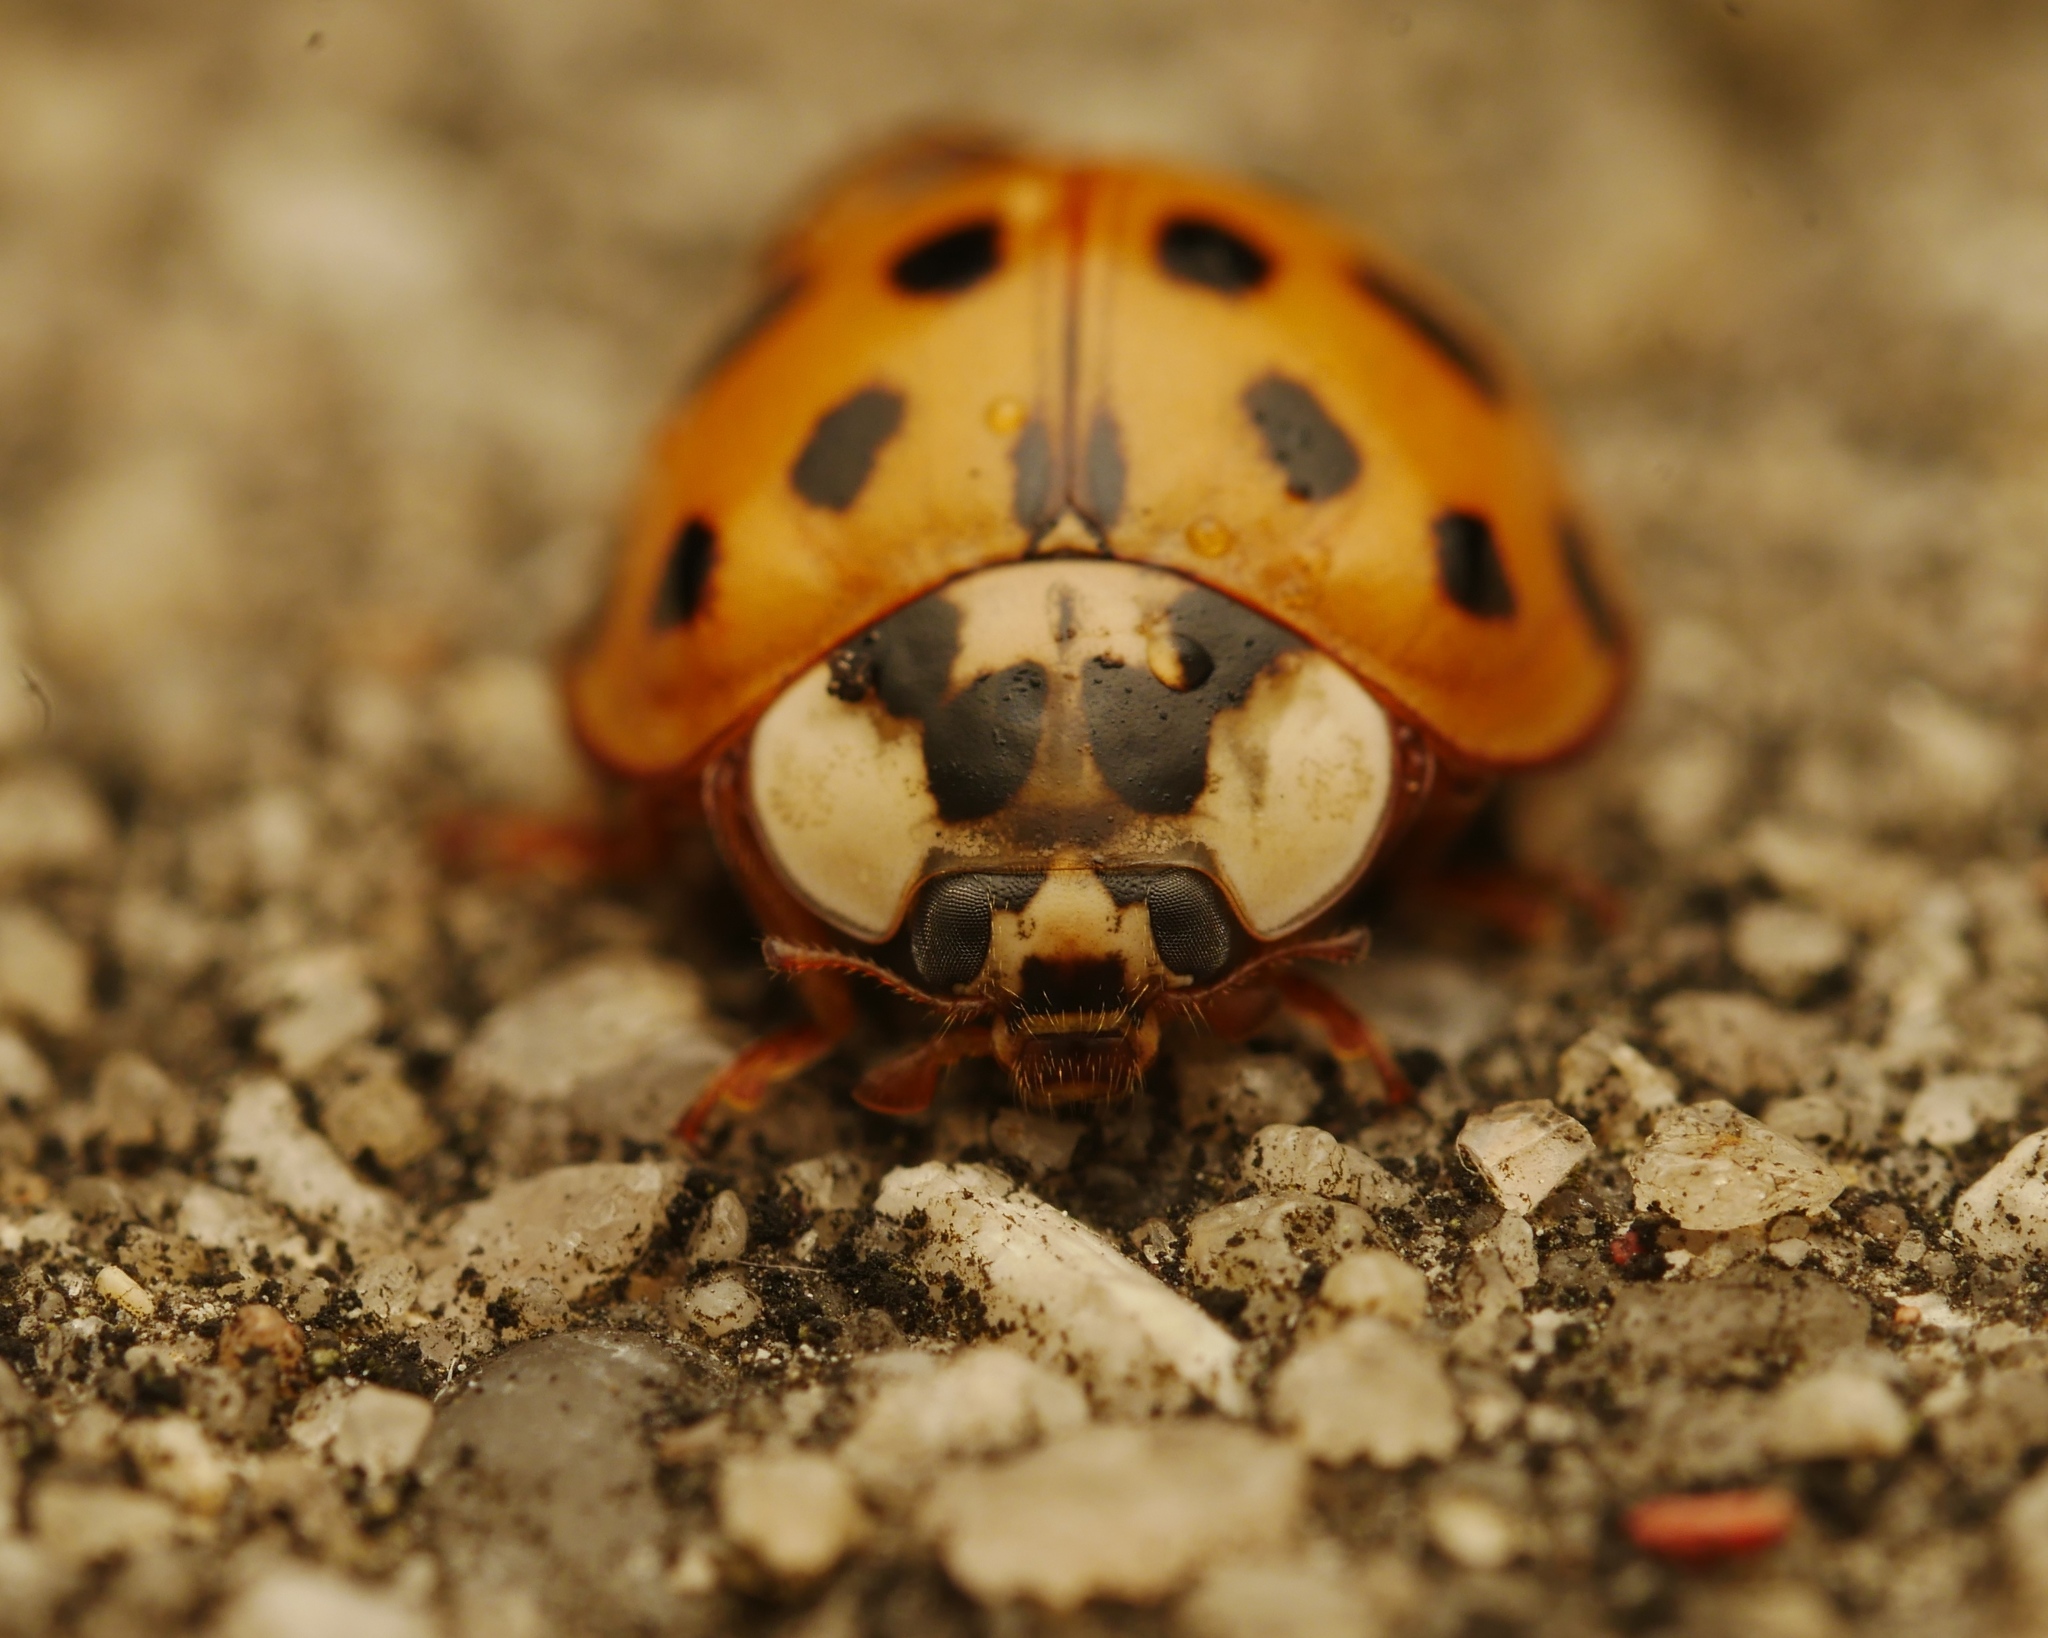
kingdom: Animalia
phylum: Arthropoda
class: Insecta
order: Coleoptera
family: Coccinellidae
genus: Harmonia
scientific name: Harmonia axyridis
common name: Harlequin ladybird
